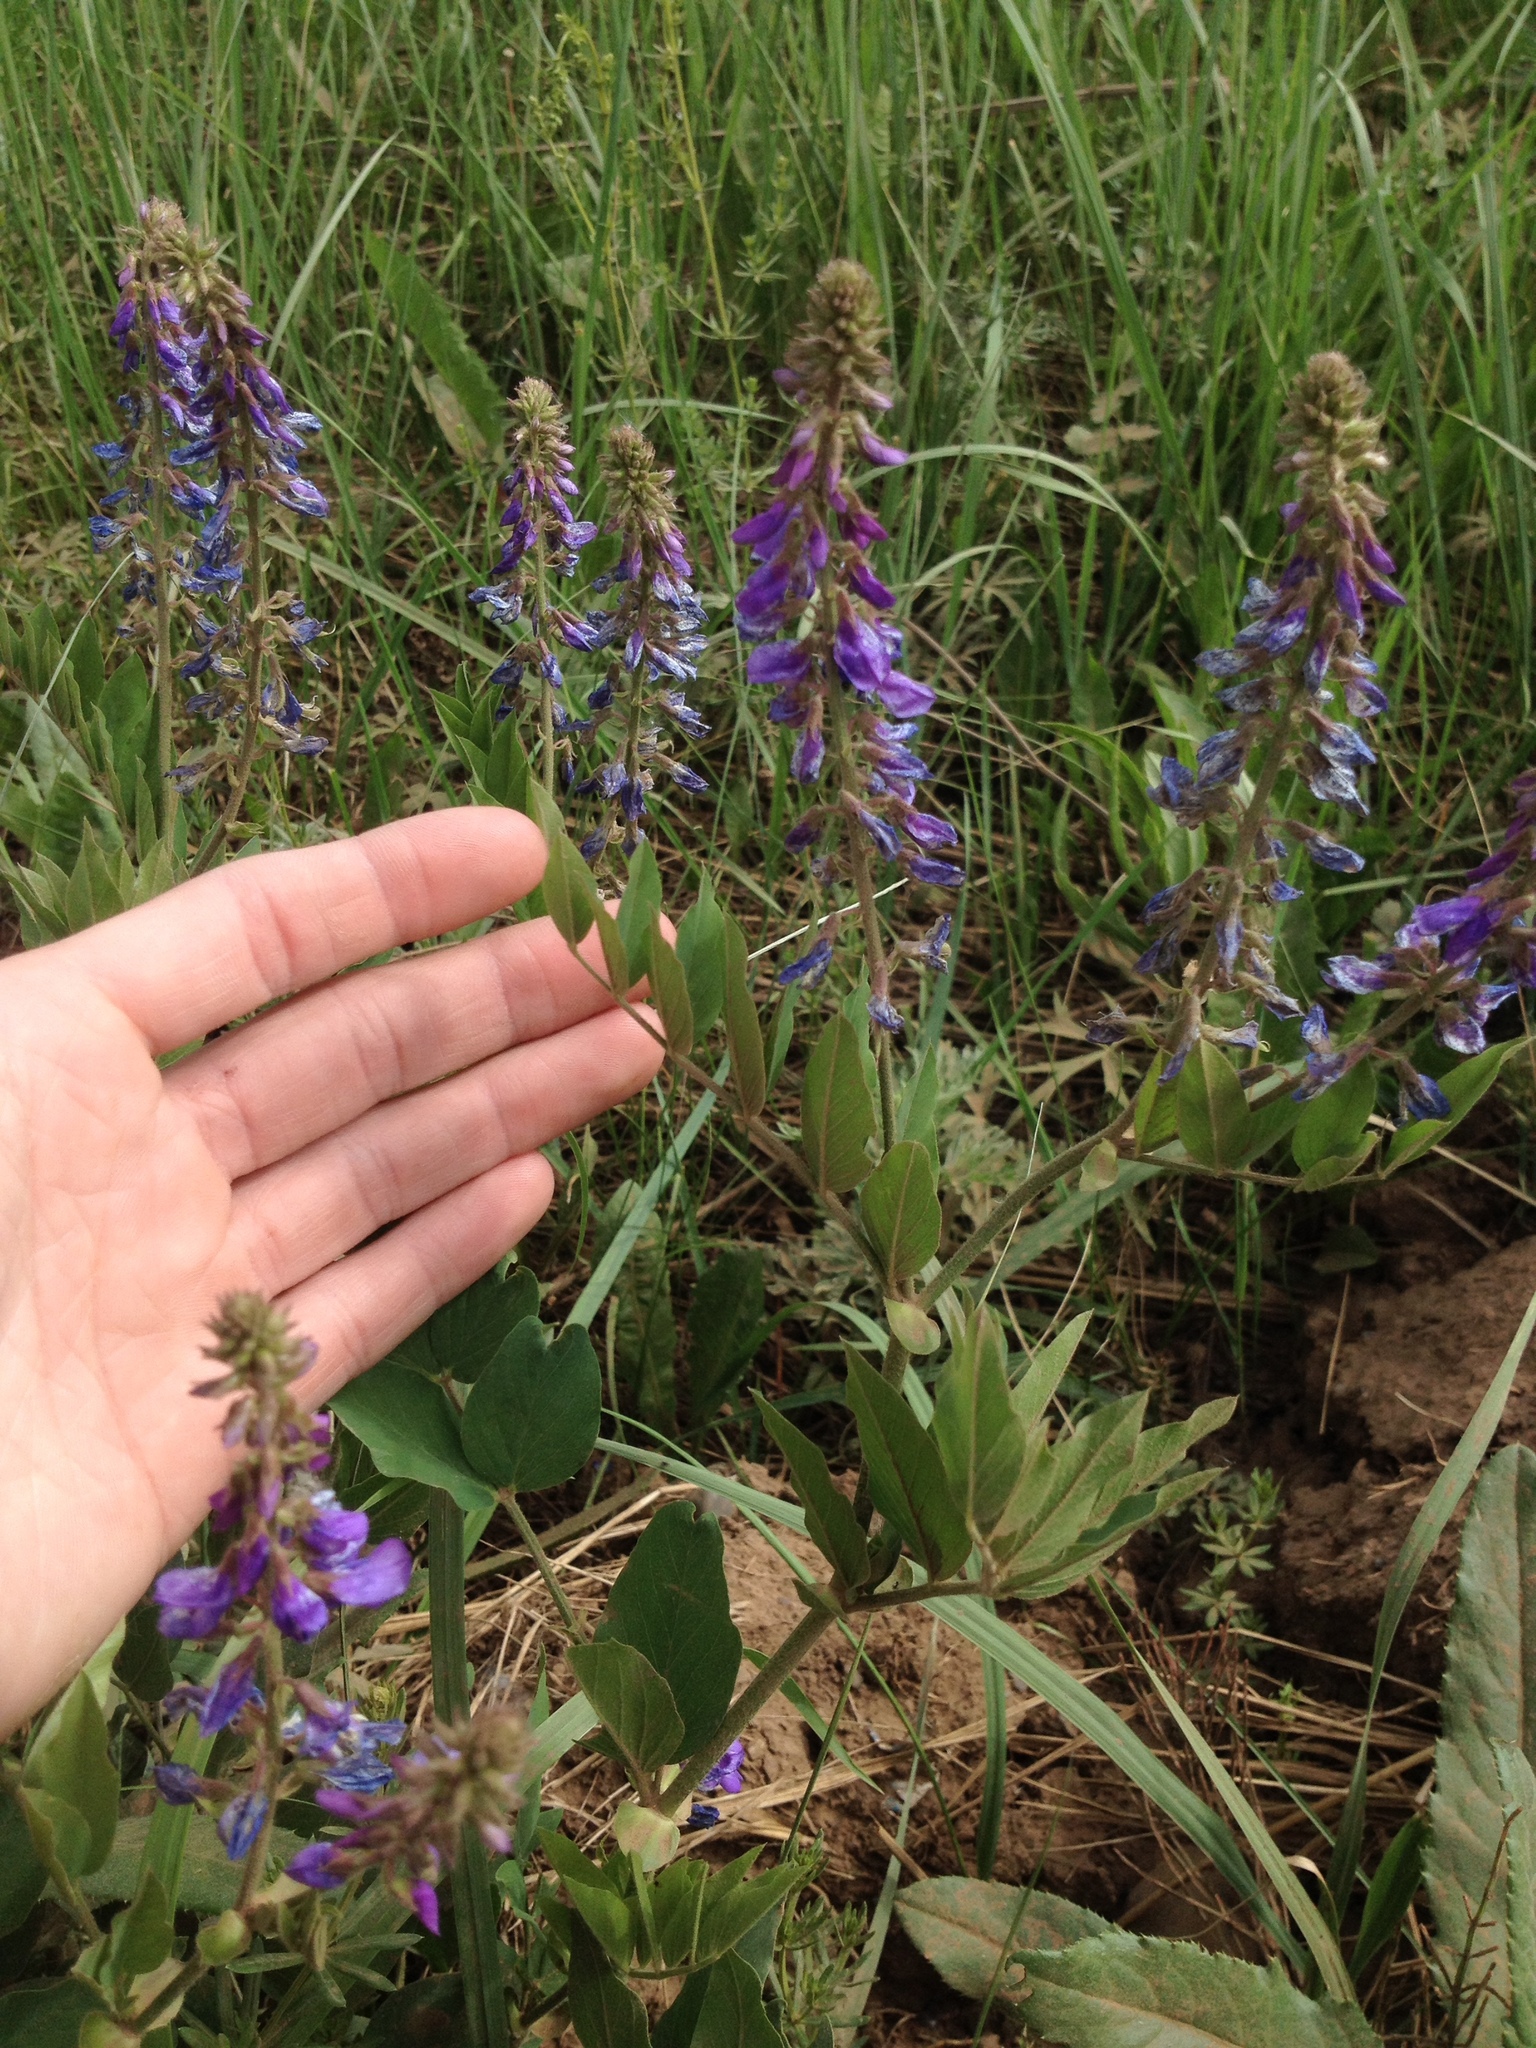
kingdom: Plantae
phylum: Tracheophyta
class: Magnoliopsida
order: Fabales
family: Fabaceae
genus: Galega
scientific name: Galega orientalis
